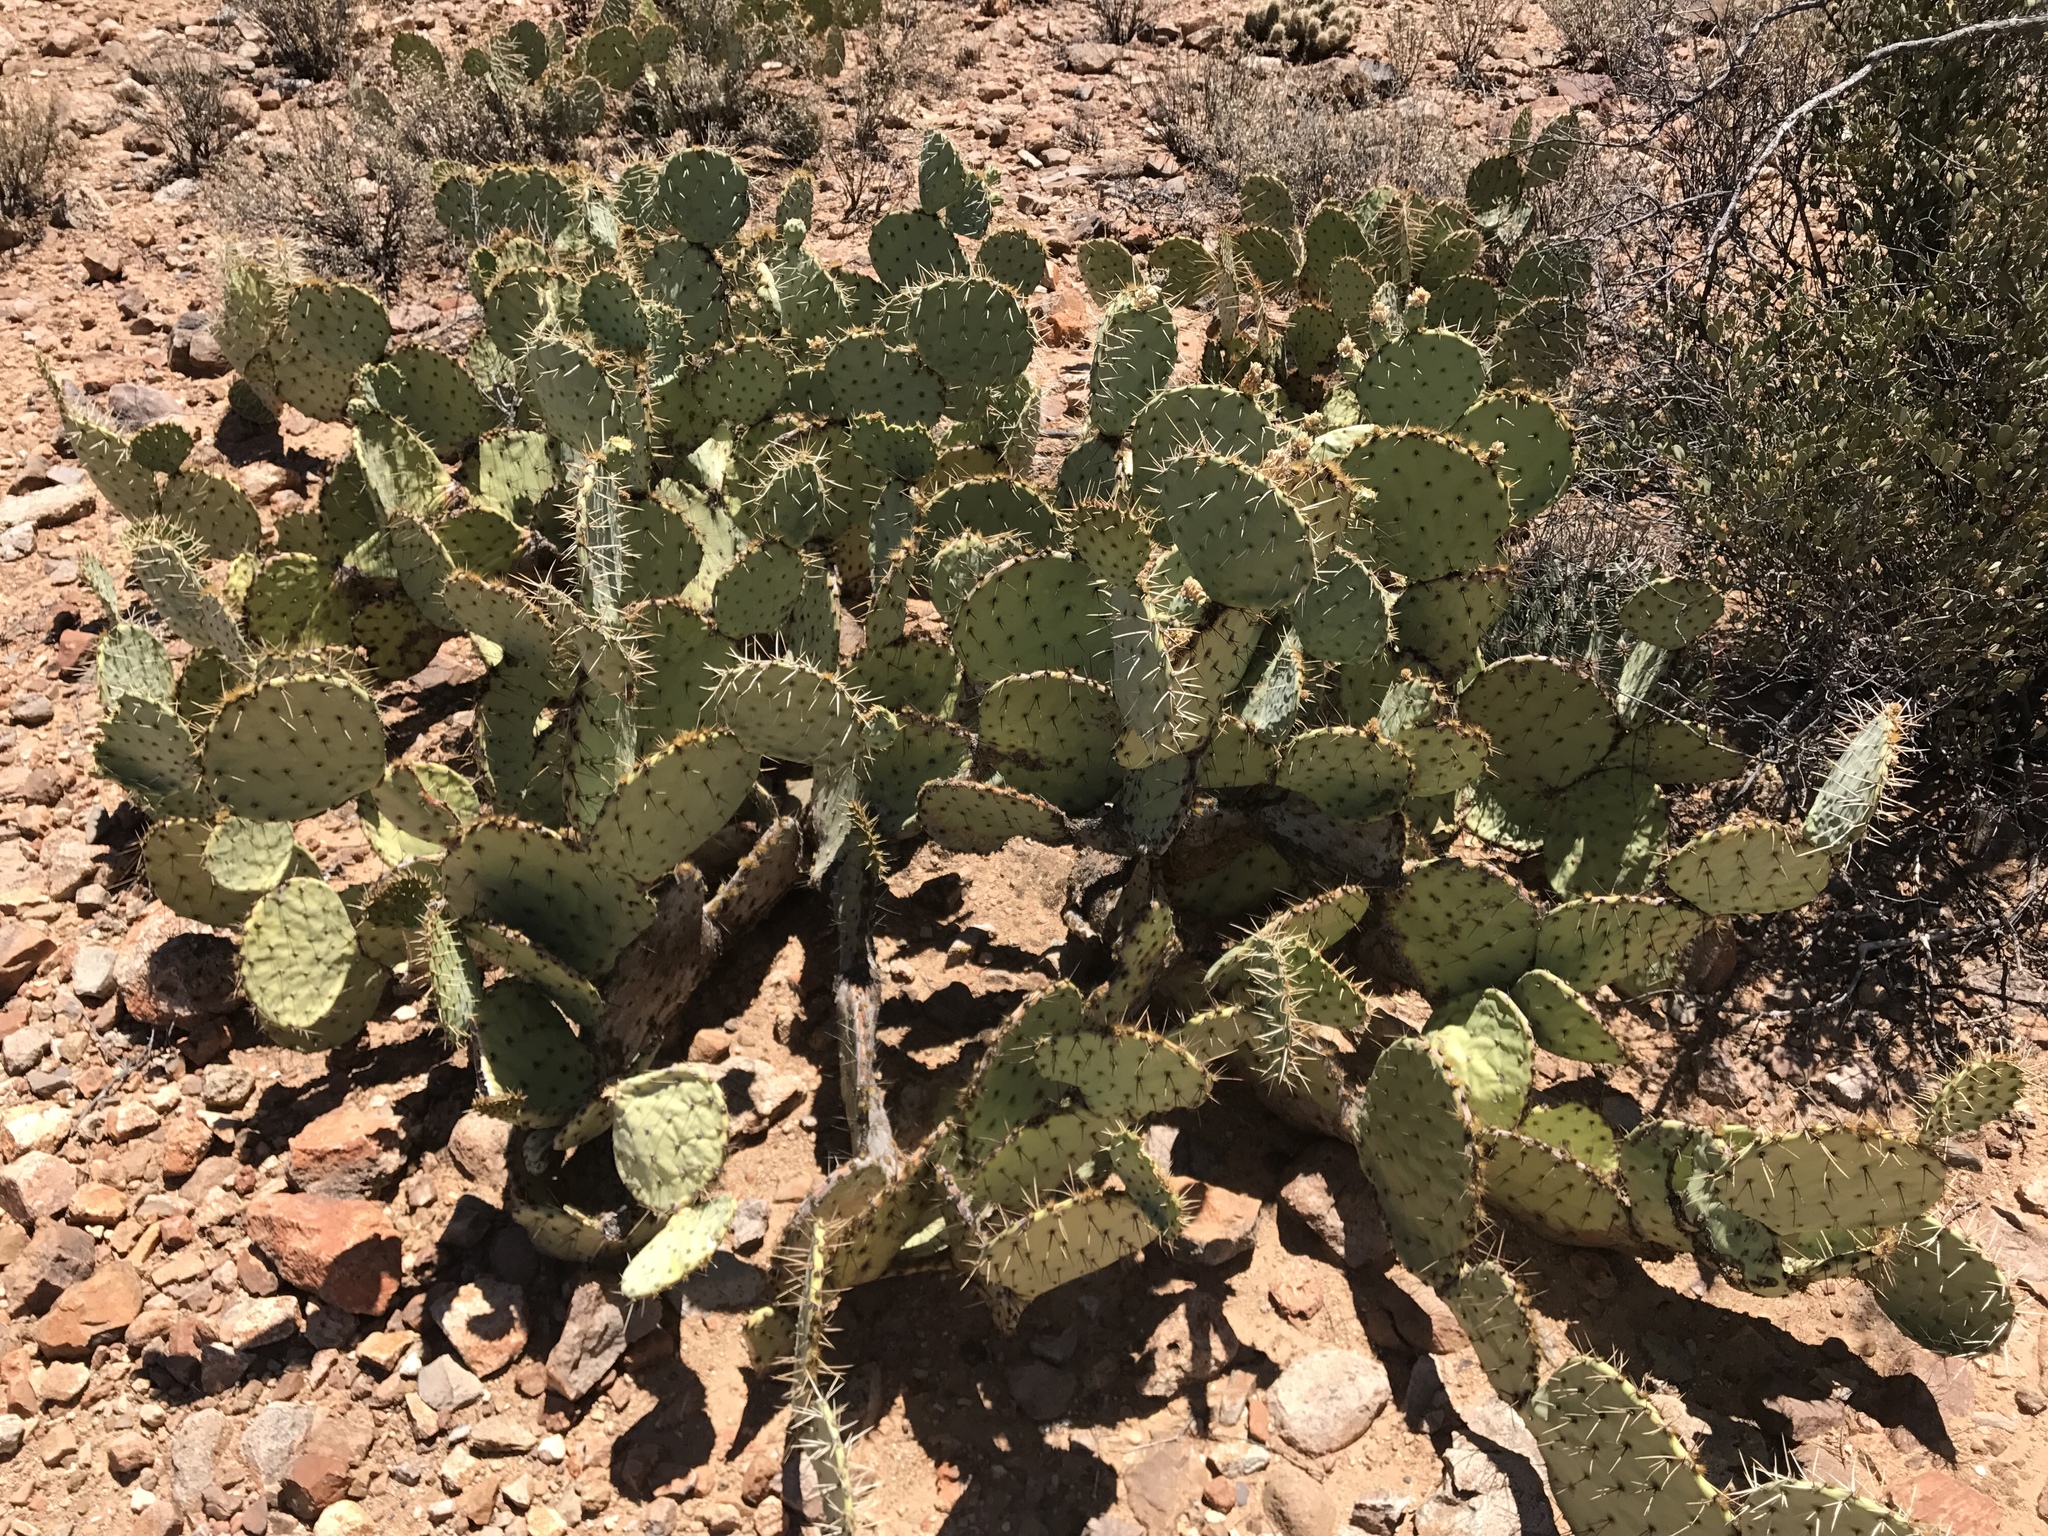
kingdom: Plantae
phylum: Tracheophyta
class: Magnoliopsida
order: Caryophyllales
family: Cactaceae
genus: Opuntia
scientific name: Opuntia engelmannii
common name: Cactus-apple
